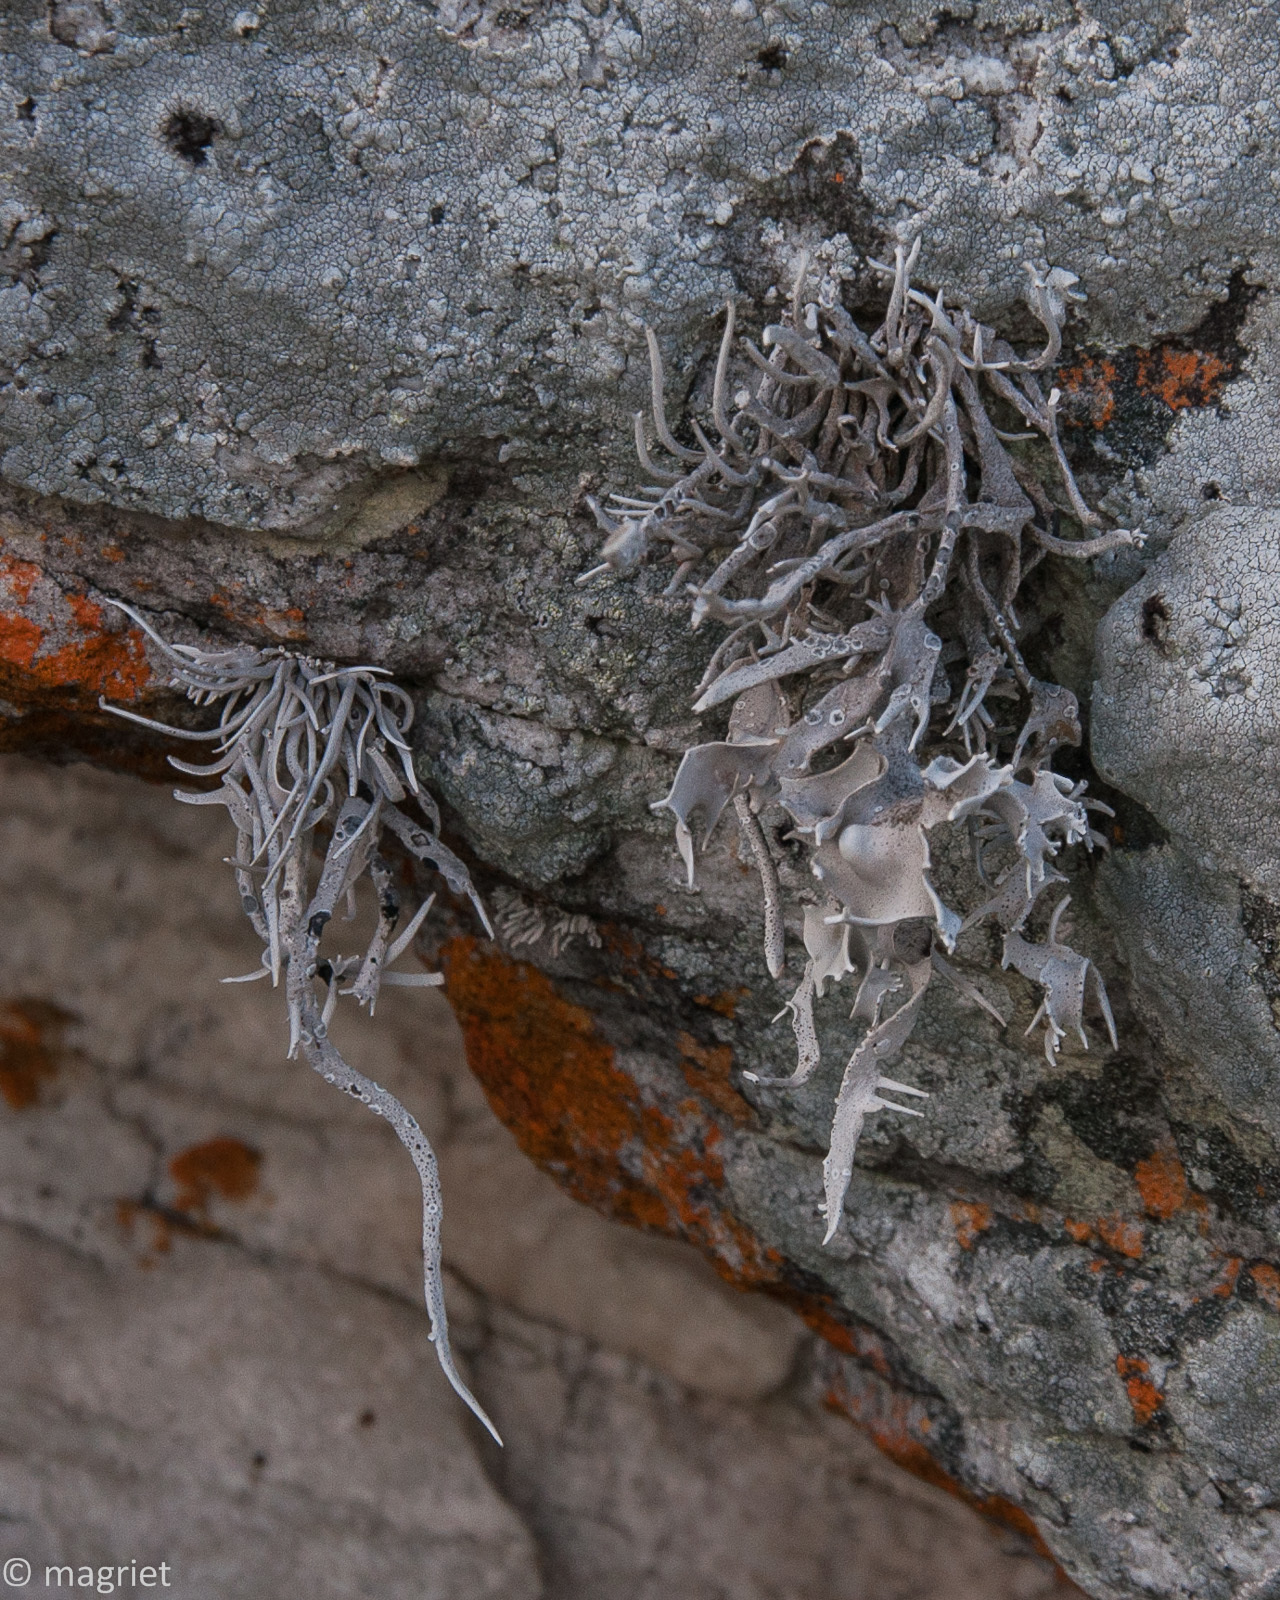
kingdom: Fungi
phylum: Ascomycota
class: Arthoniomycetes
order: Arthoniales
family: Roccellaceae
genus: Roccellina
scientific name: Roccellina hypomecha
